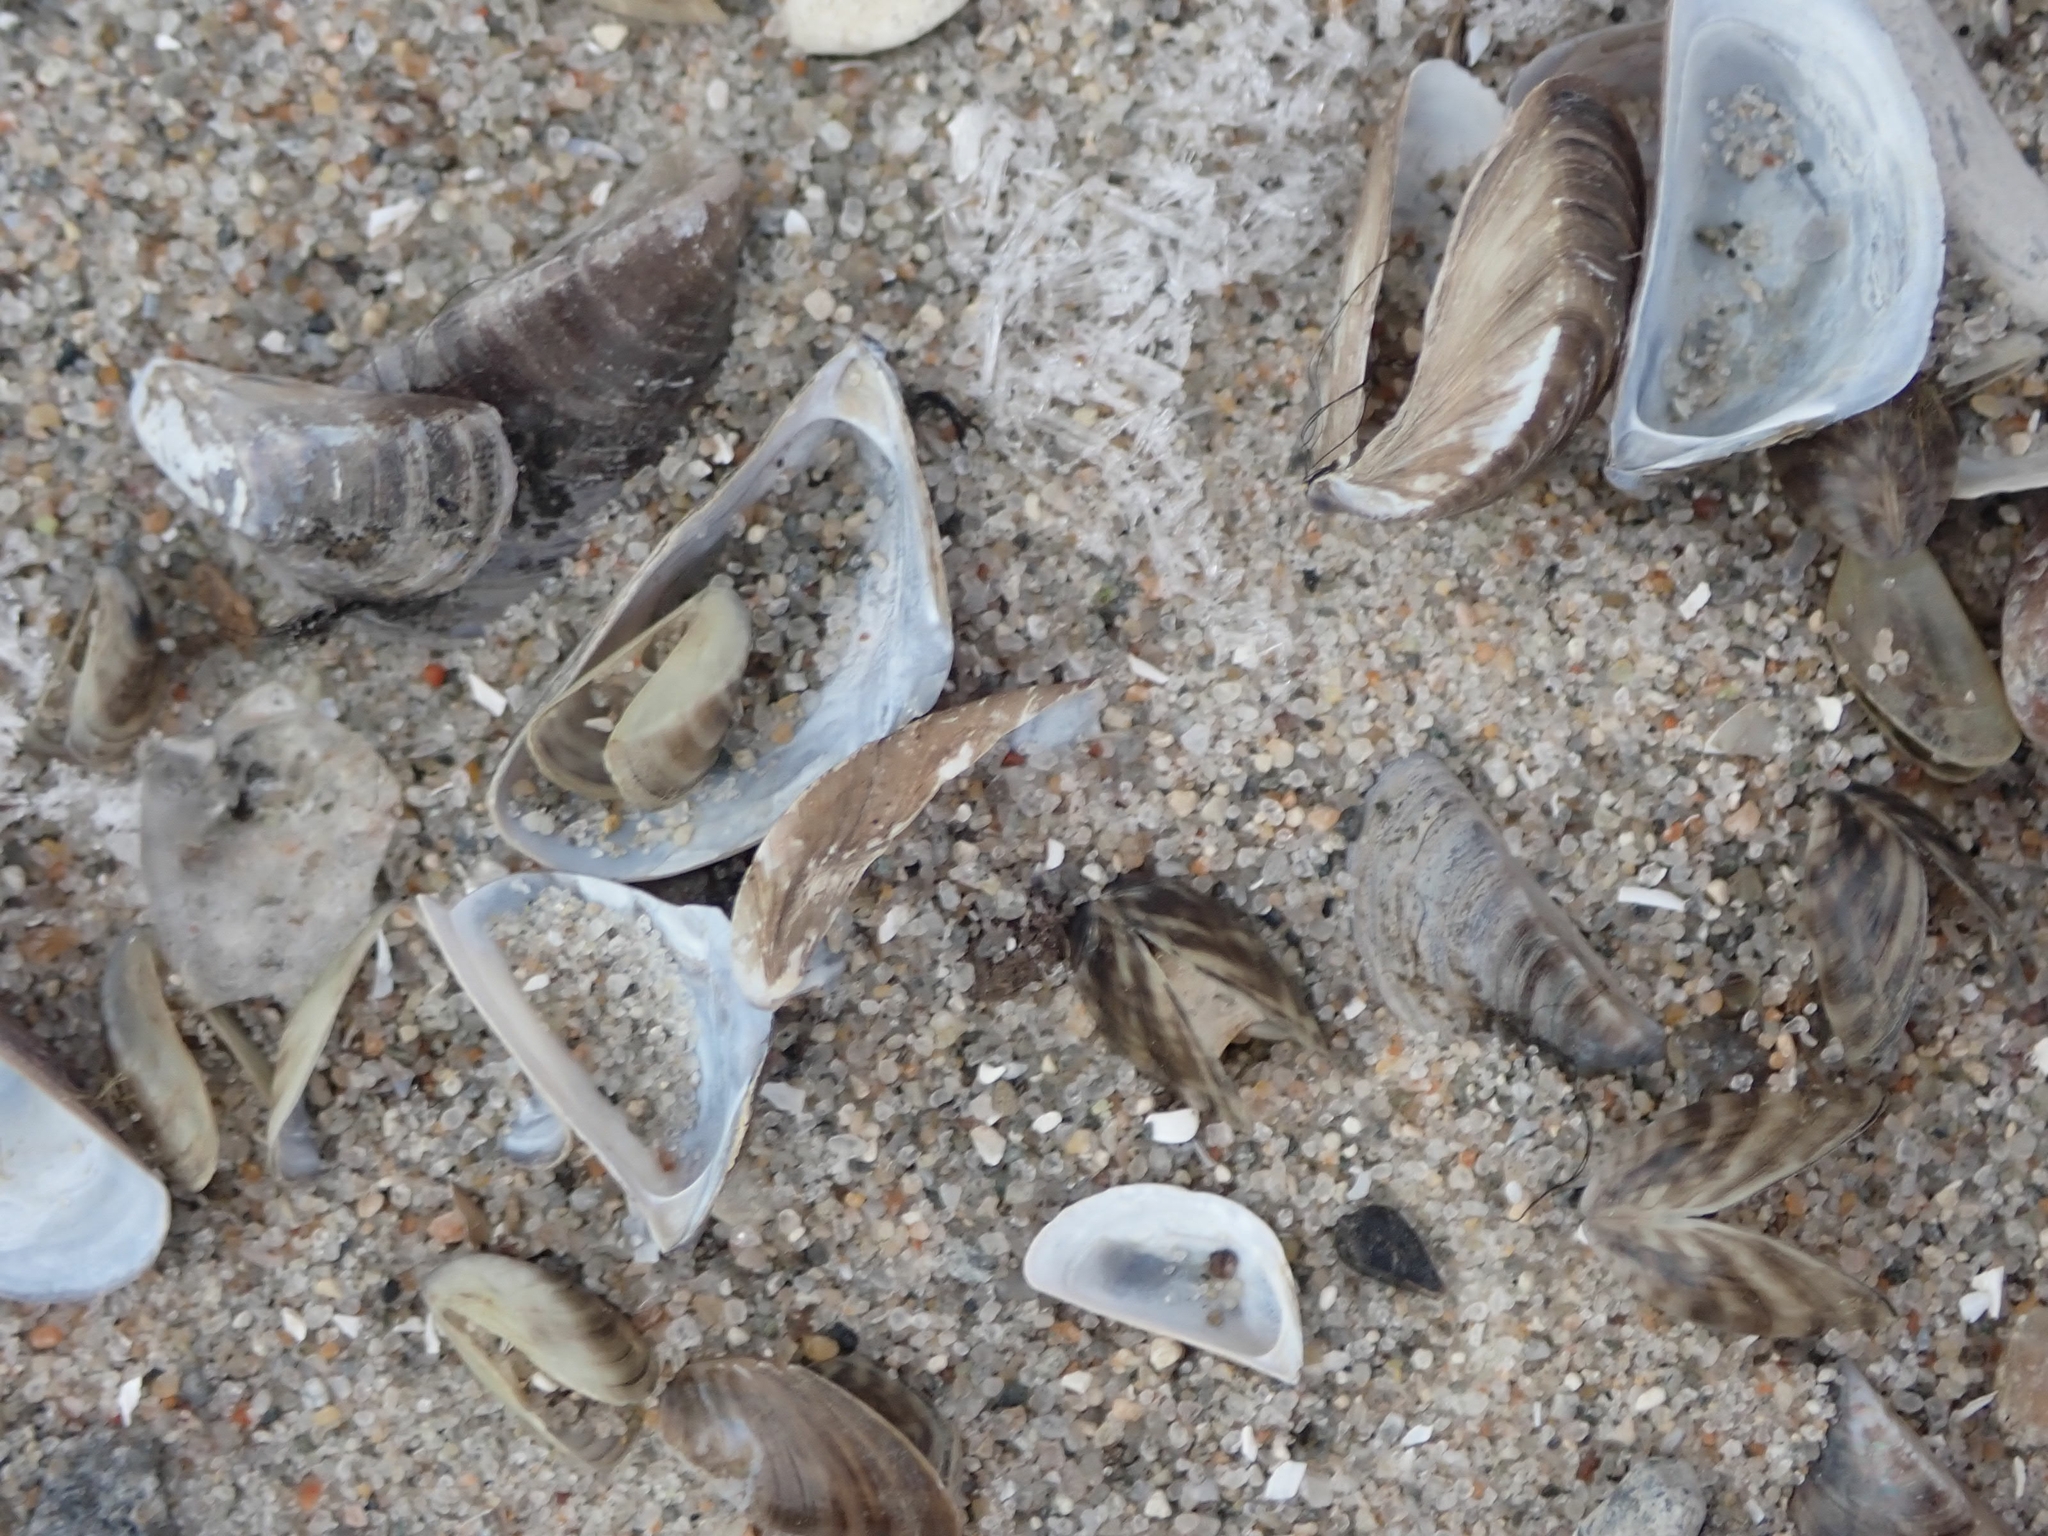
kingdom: Animalia
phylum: Mollusca
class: Bivalvia
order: Myida
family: Dreissenidae
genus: Dreissena
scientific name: Dreissena polymorpha
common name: Zebra mussel
